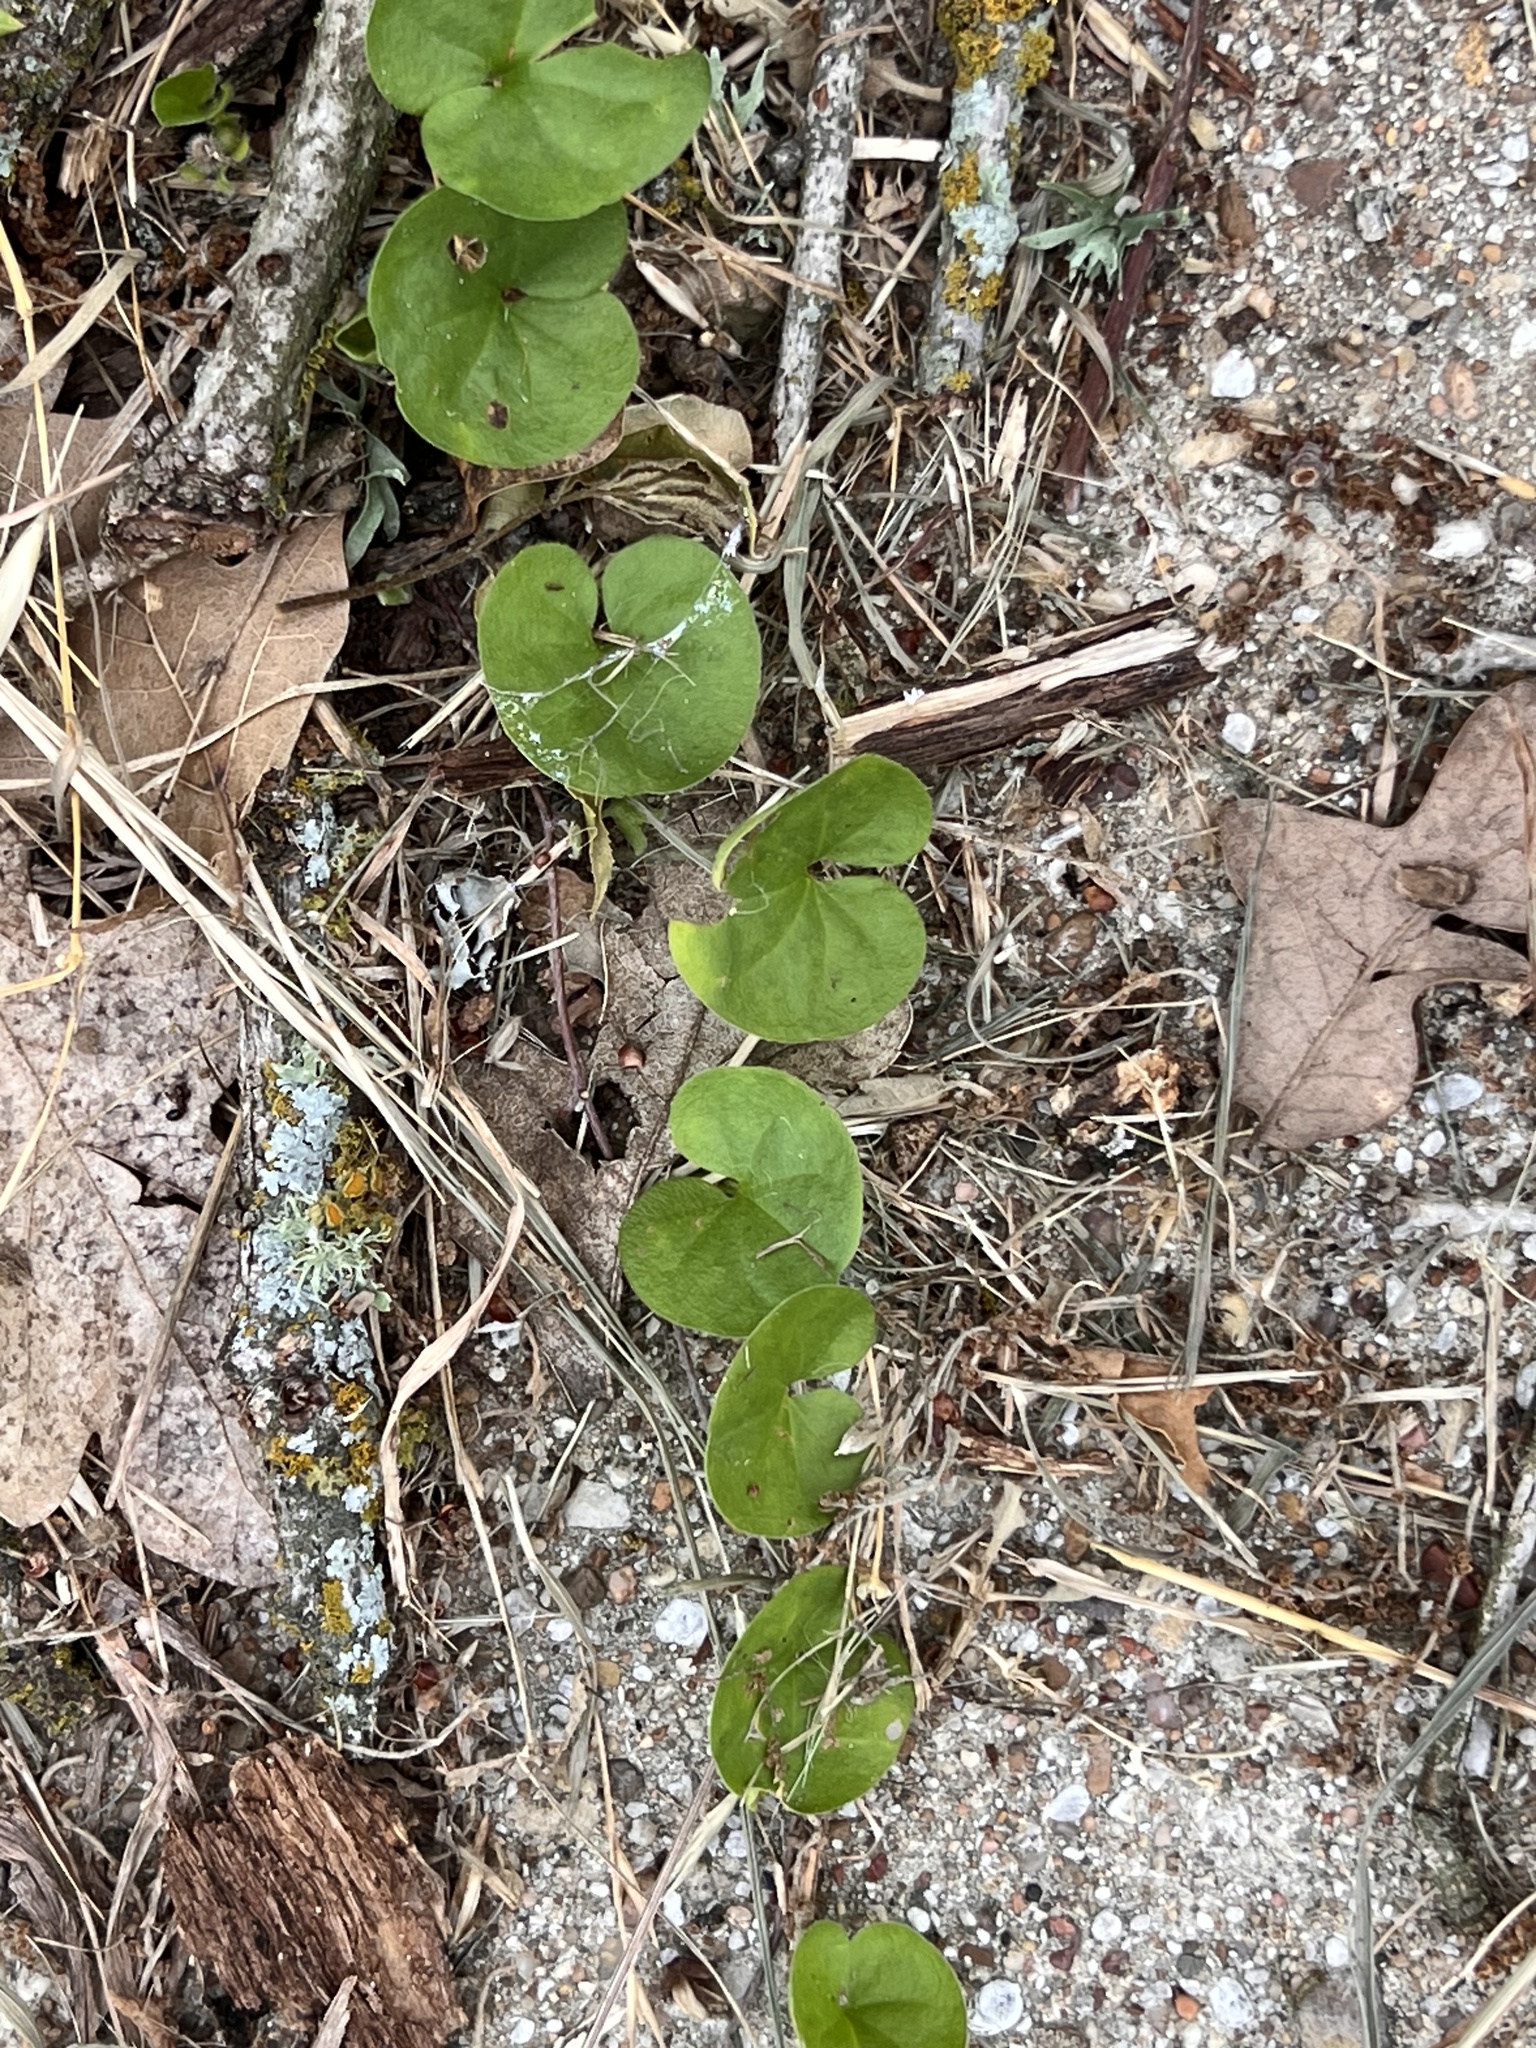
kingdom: Plantae
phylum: Tracheophyta
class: Magnoliopsida
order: Solanales
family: Convolvulaceae
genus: Dichondra
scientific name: Dichondra carolinensis
